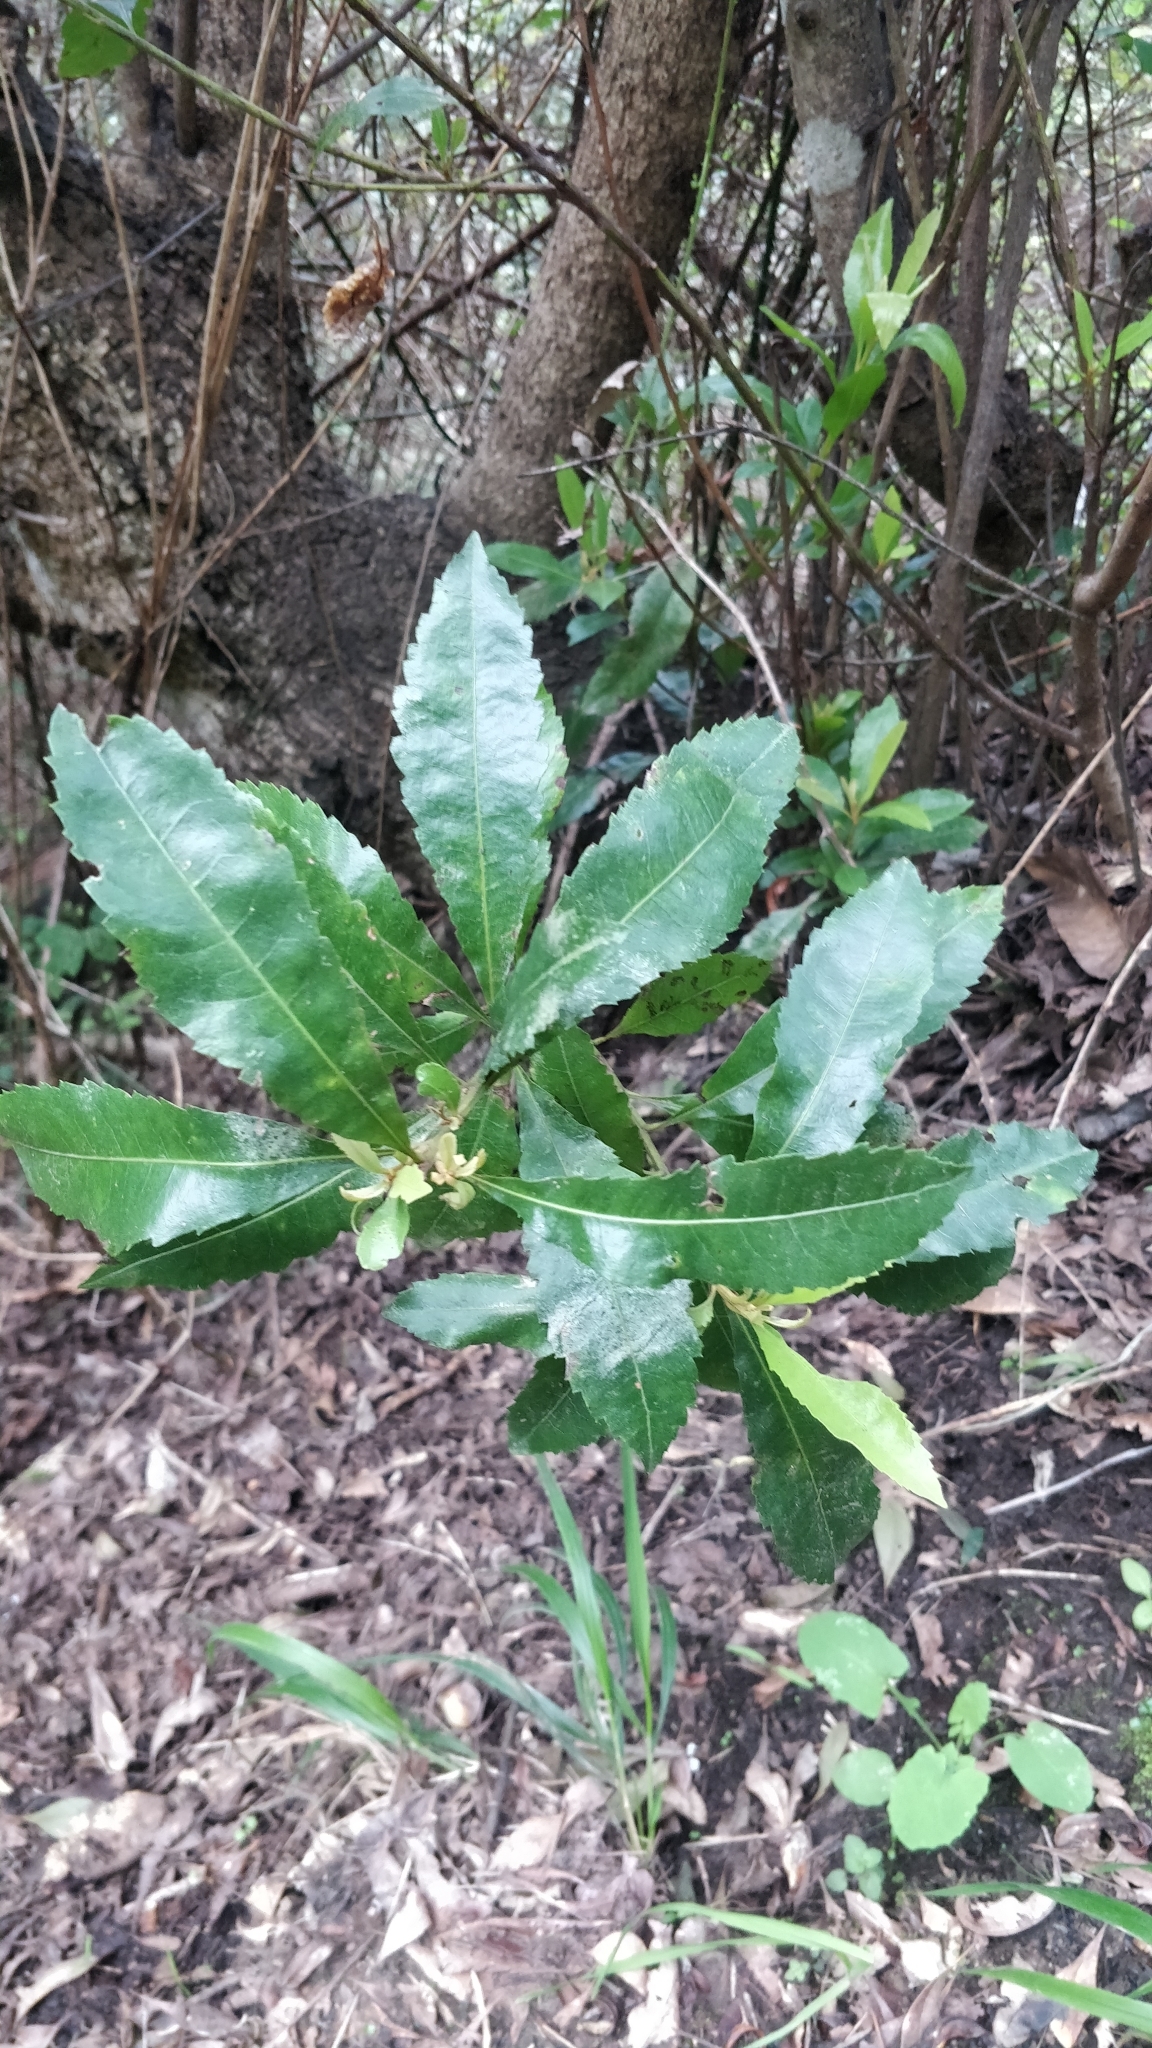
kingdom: Plantae
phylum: Tracheophyta
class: Magnoliopsida
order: Fagales
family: Myricaceae
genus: Morella
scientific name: Morella faya
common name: Firetree
